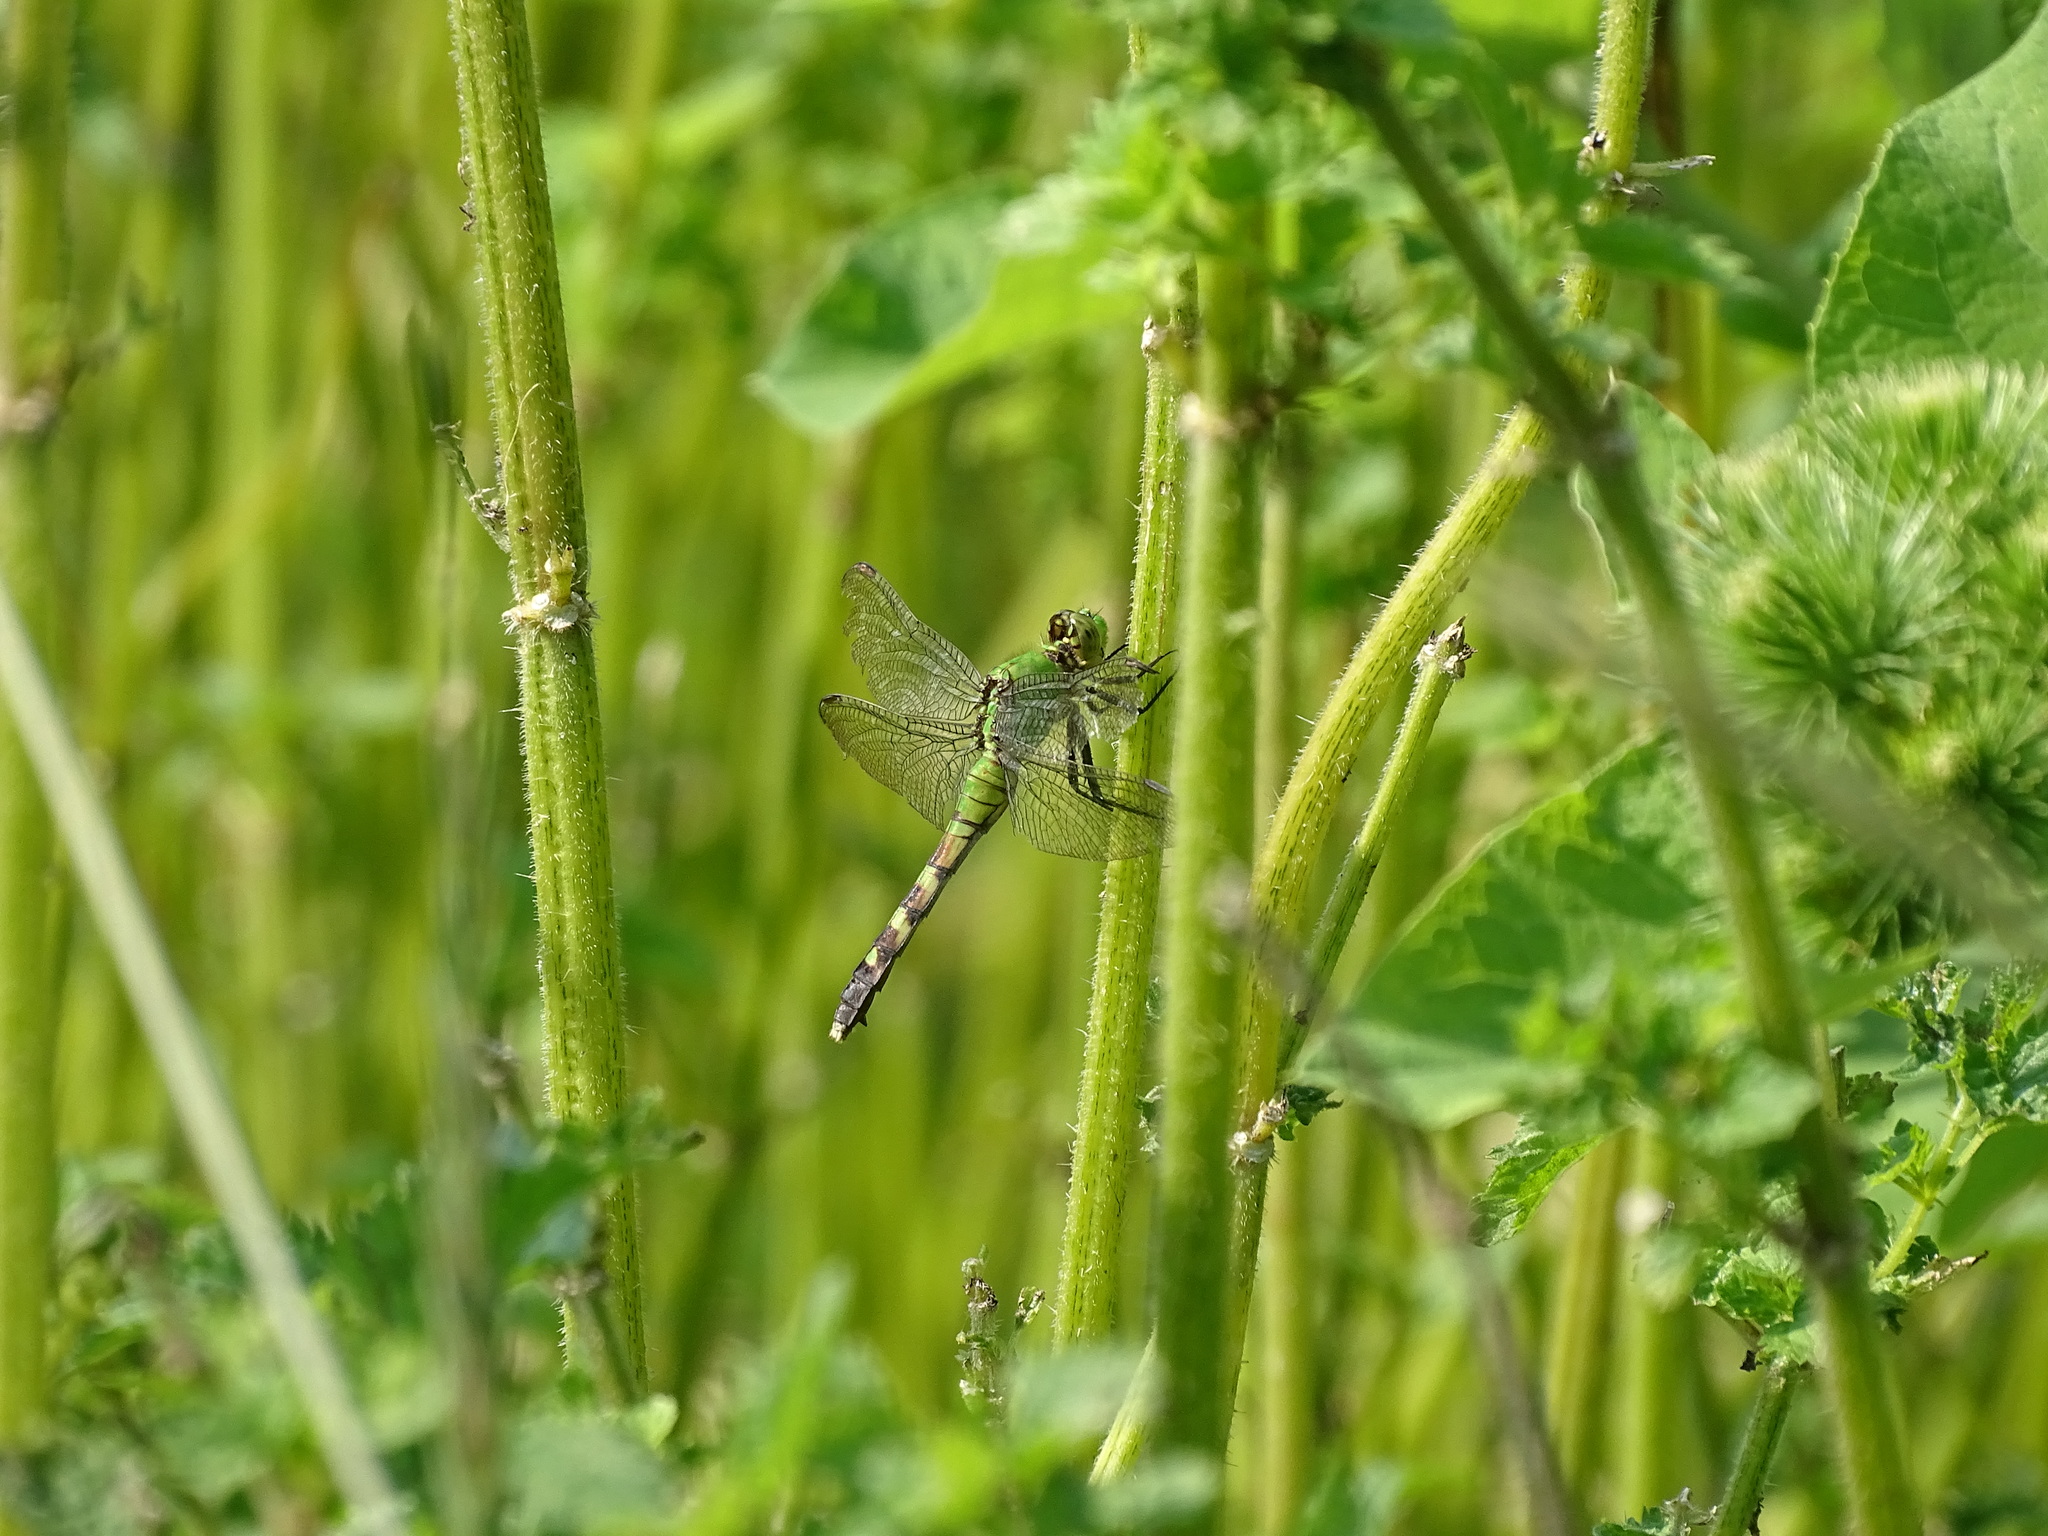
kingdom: Animalia
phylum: Arthropoda
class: Insecta
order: Odonata
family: Libellulidae
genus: Erythemis
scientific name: Erythemis simplicicollis
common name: Eastern pondhawk
